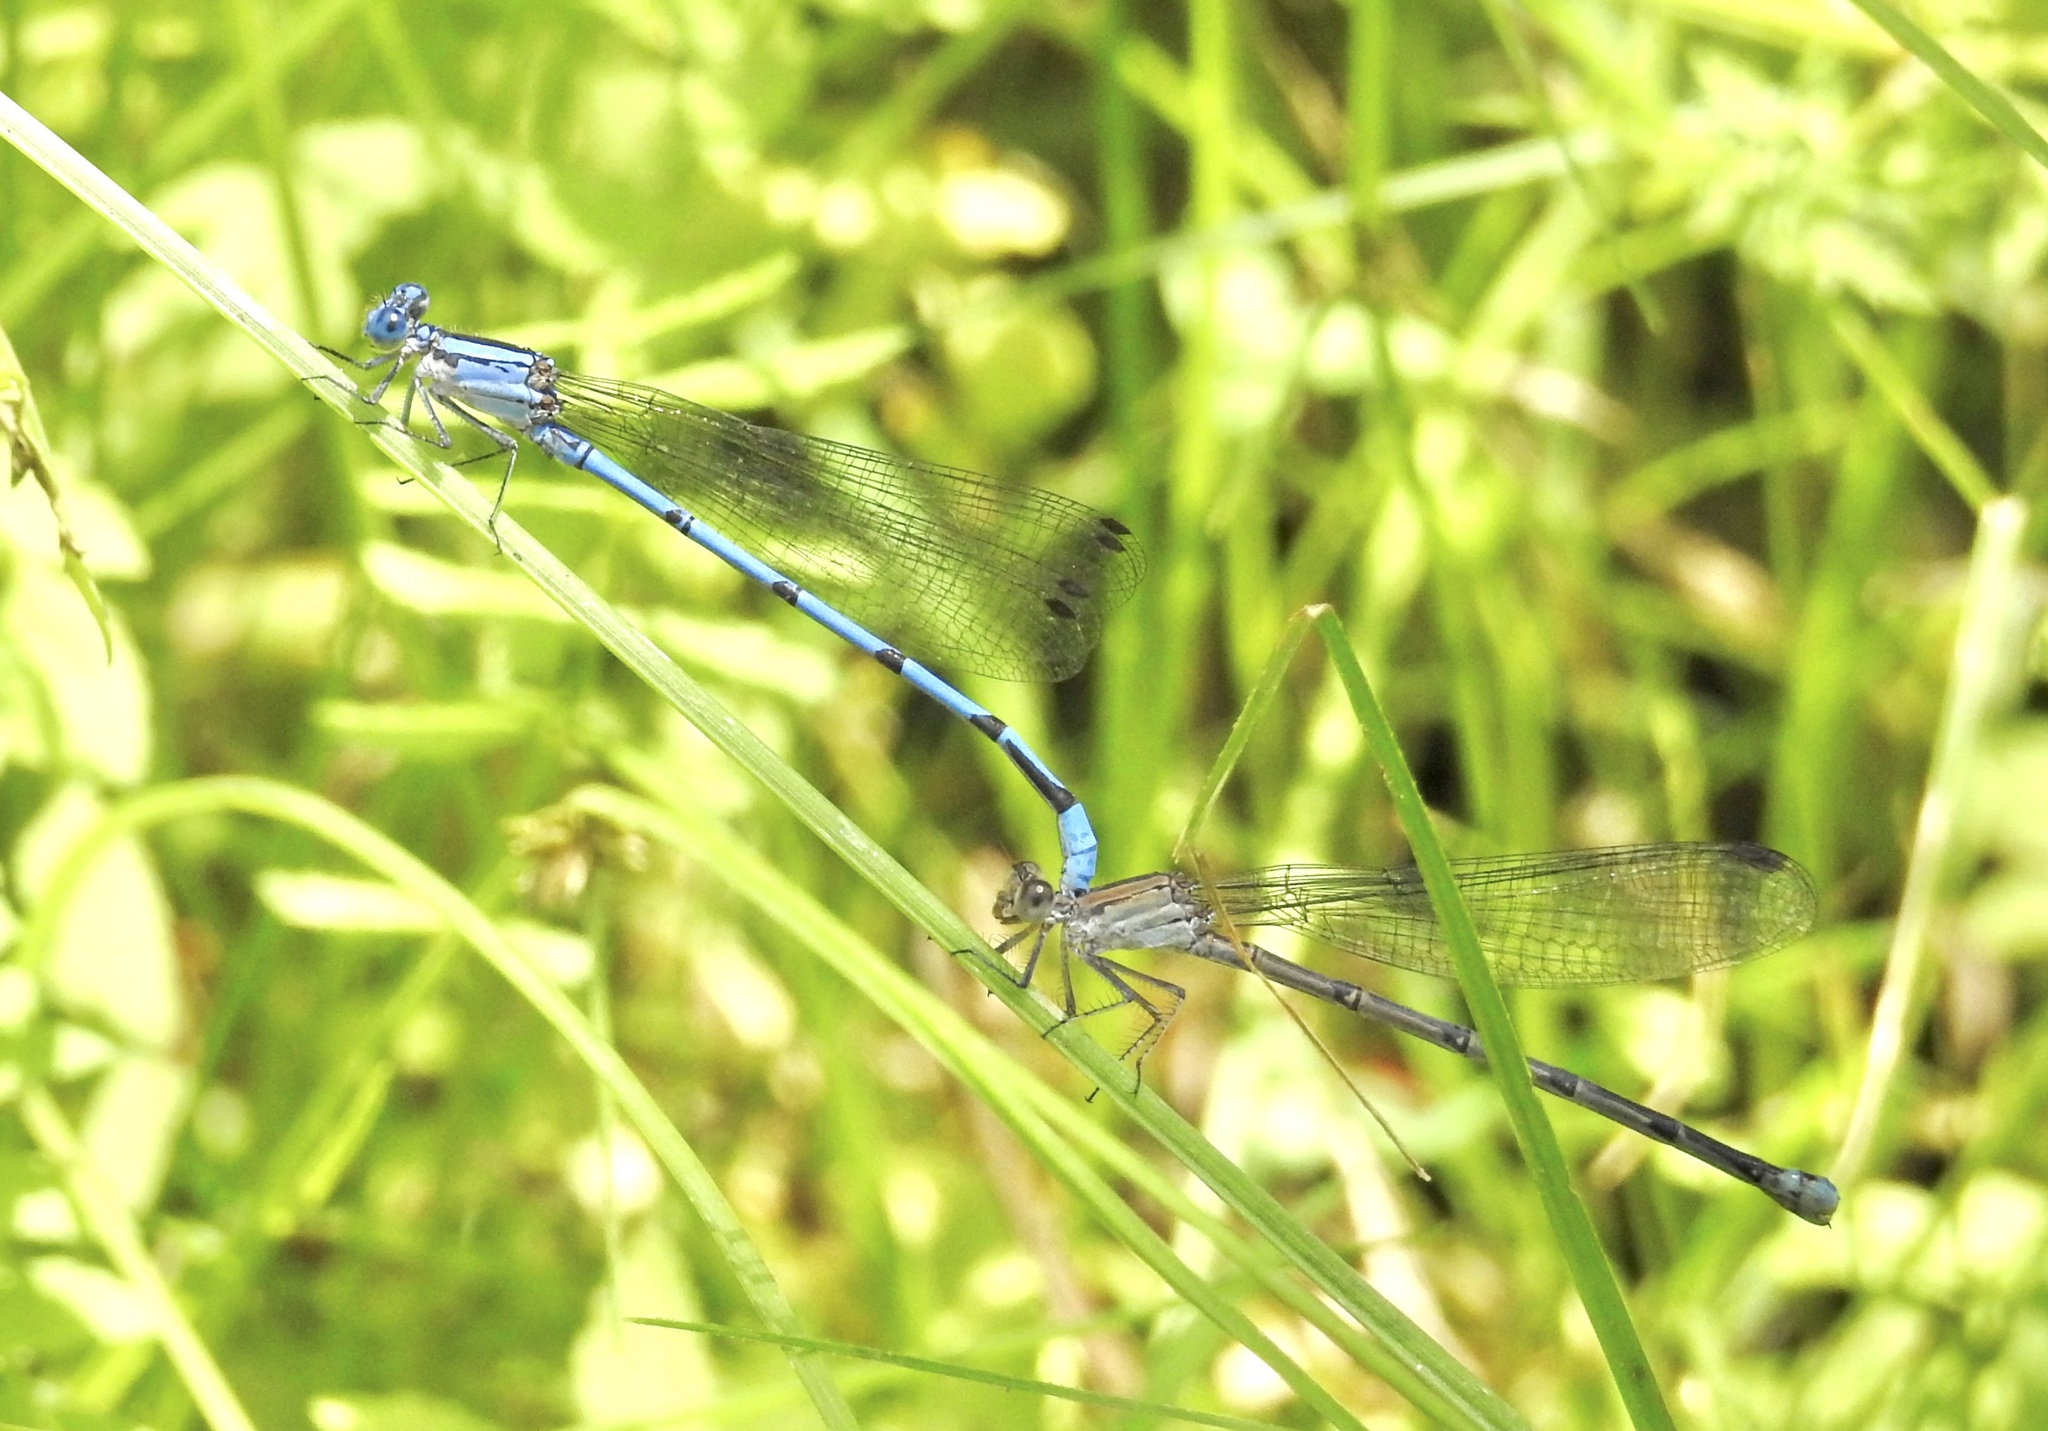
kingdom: Animalia
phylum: Arthropoda
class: Insecta
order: Odonata
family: Coenagrionidae
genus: Argia
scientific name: Argia lacrimans
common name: Sierra madre dancer
